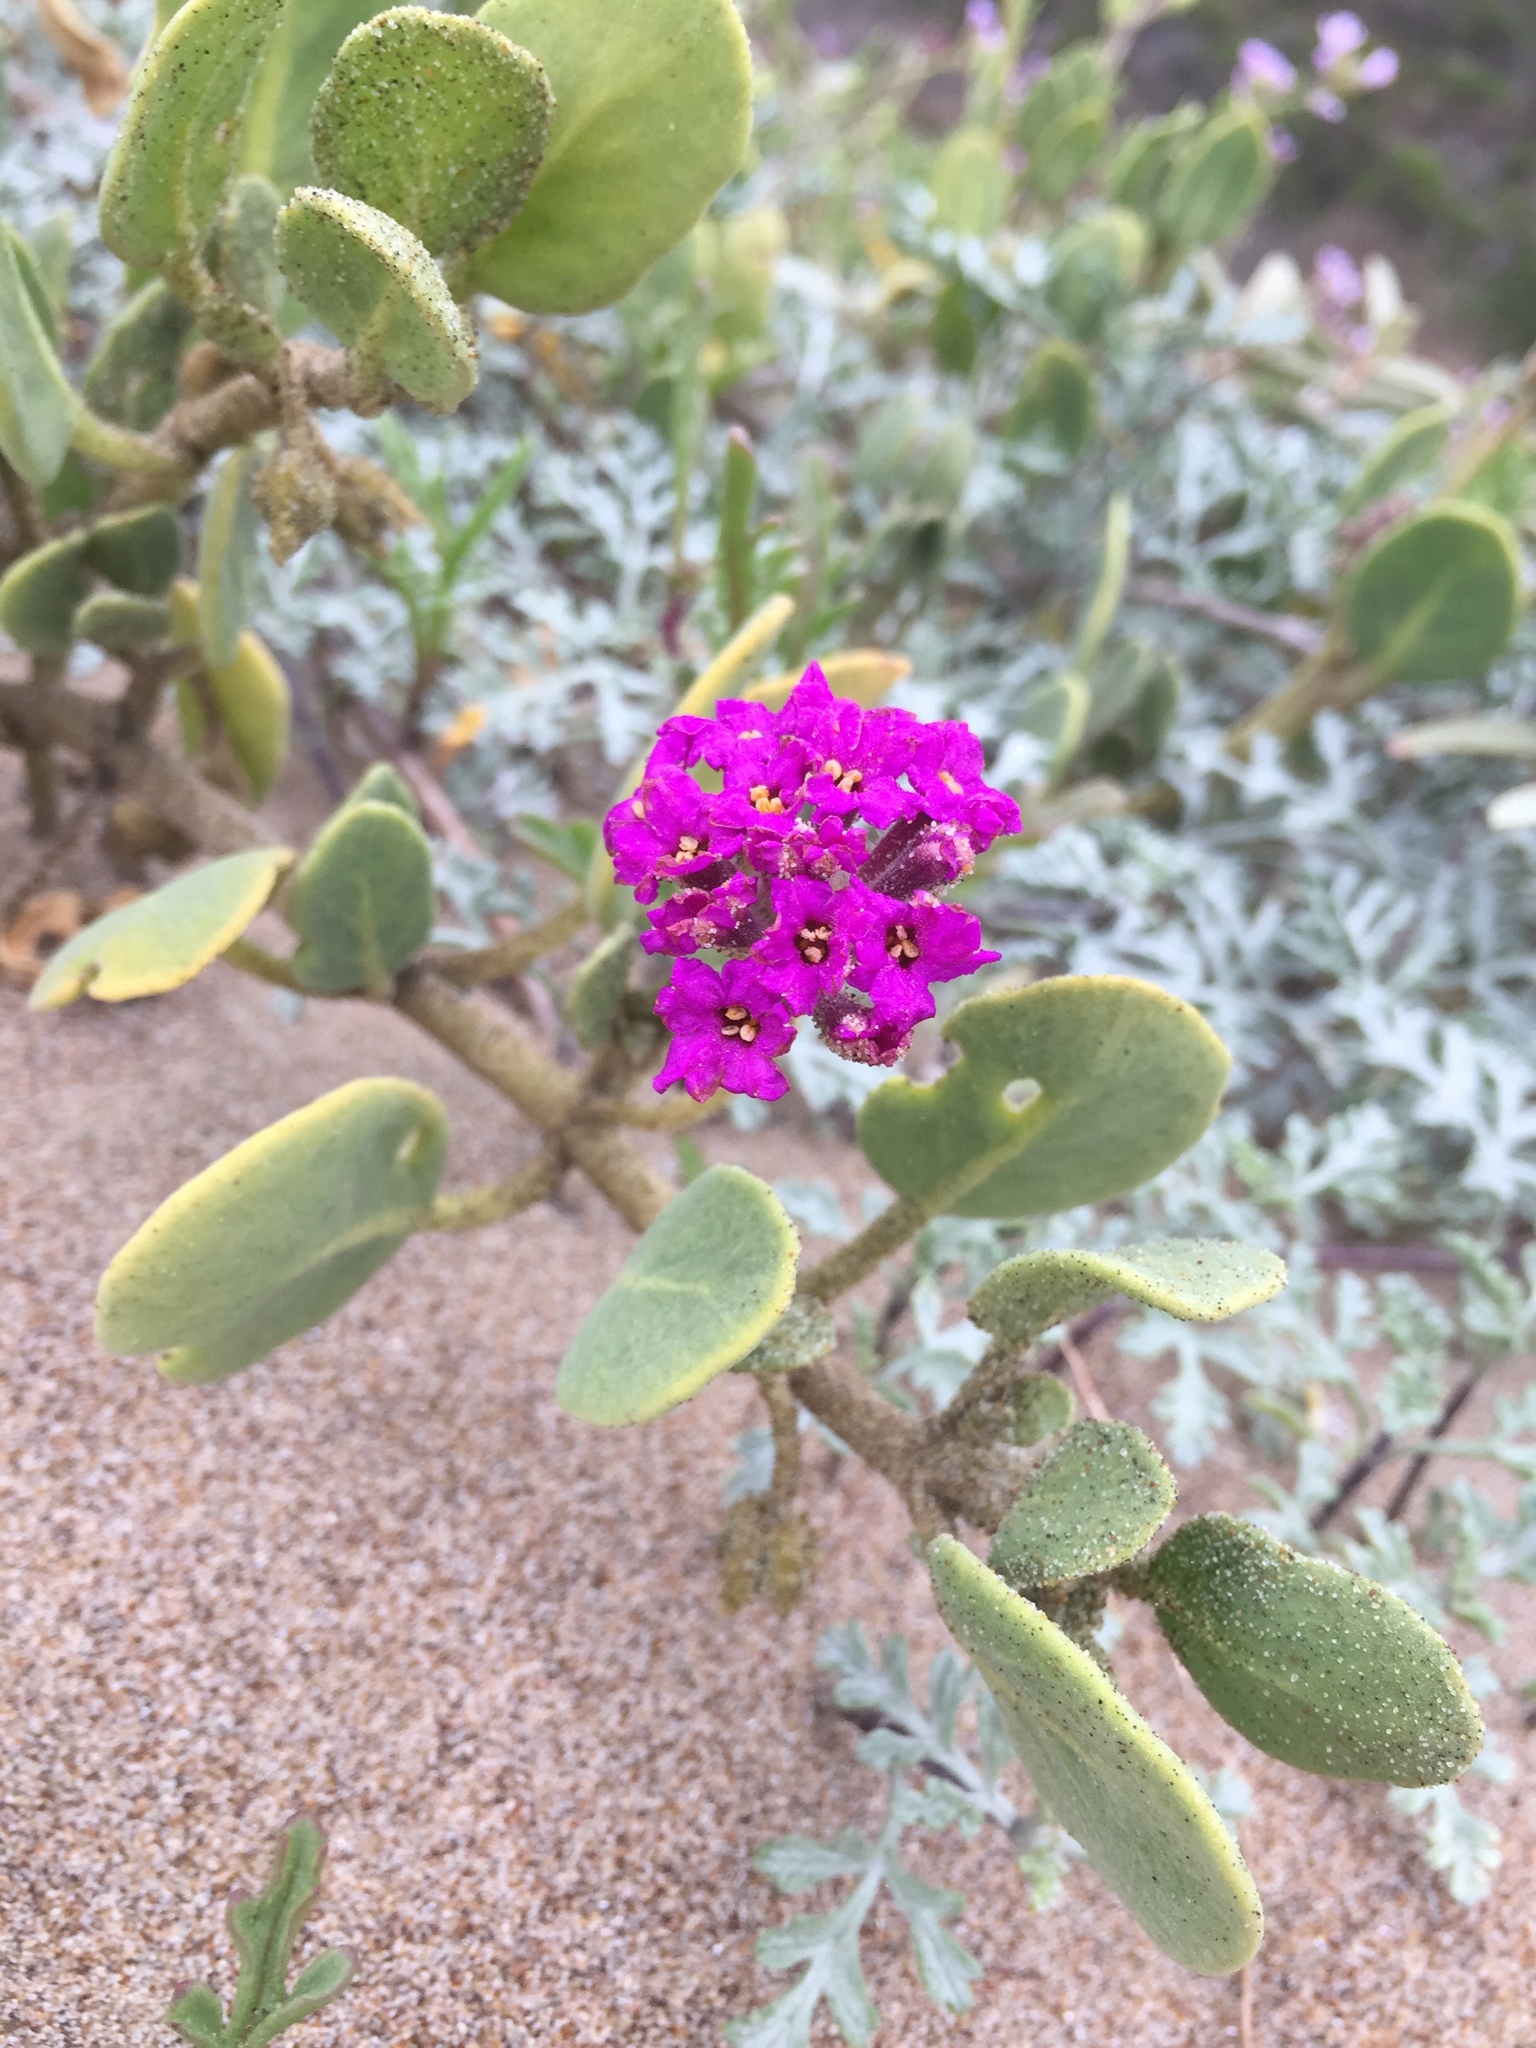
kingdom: Plantae
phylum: Tracheophyta
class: Magnoliopsida
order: Caryophyllales
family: Nyctaginaceae
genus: Abronia
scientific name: Abronia maritima
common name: Red sand-verbena
